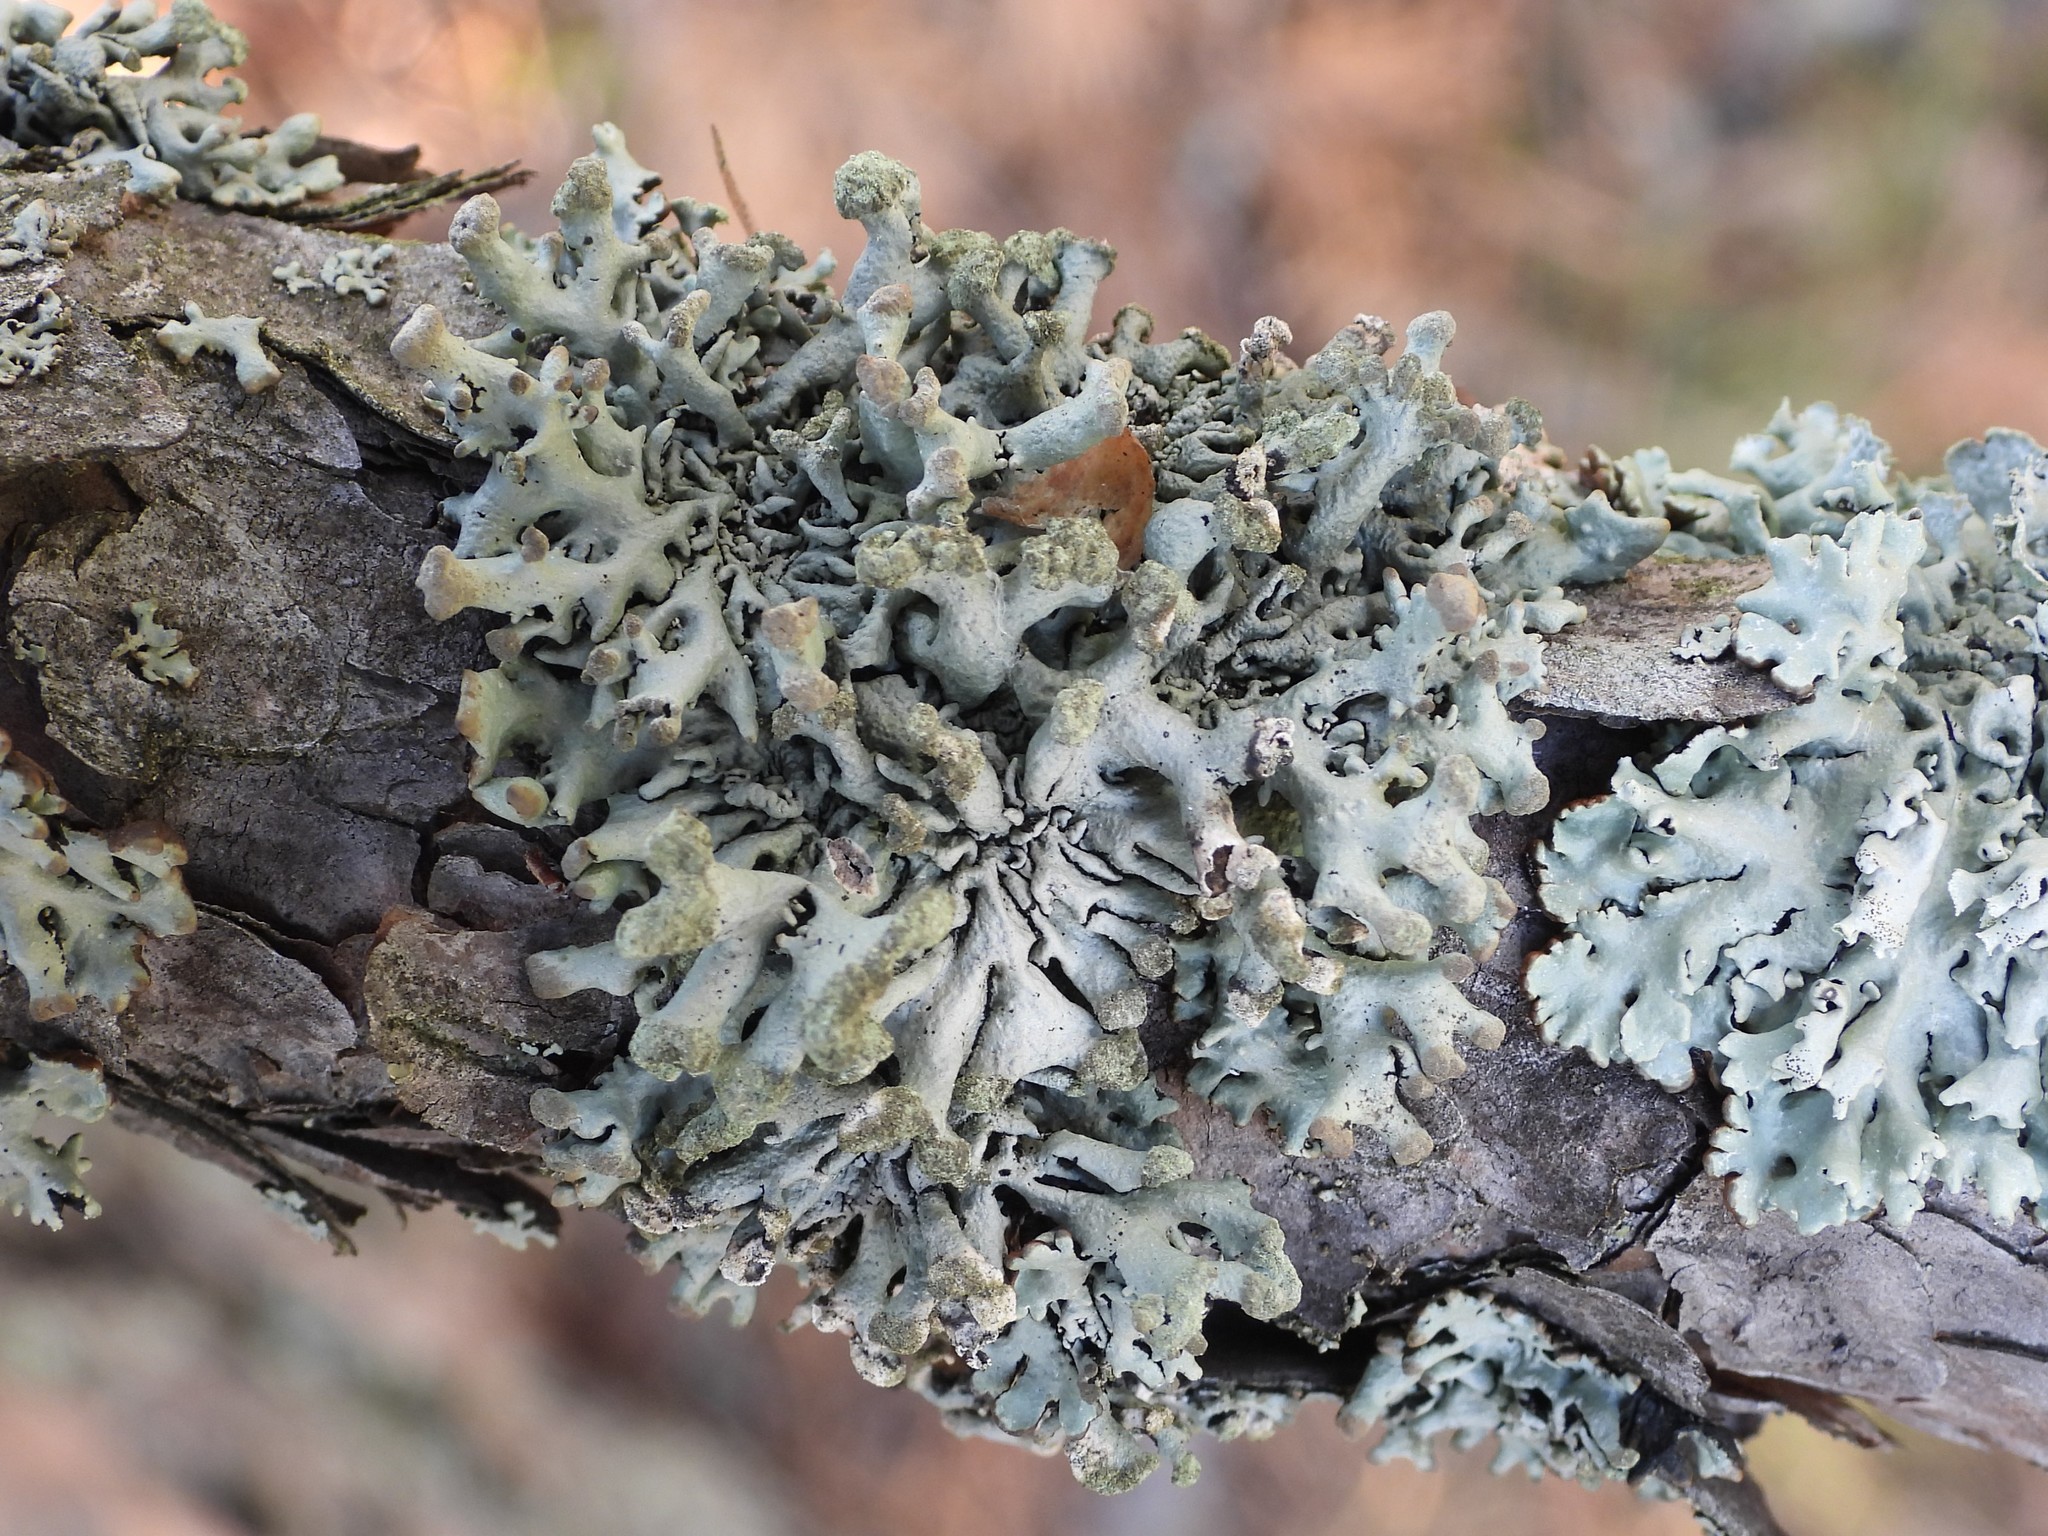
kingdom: Fungi
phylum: Ascomycota
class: Lecanoromycetes
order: Lecanorales
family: Parmeliaceae
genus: Hypogymnia
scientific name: Hypogymnia tubulosa
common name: Powder-headed tube lichen
